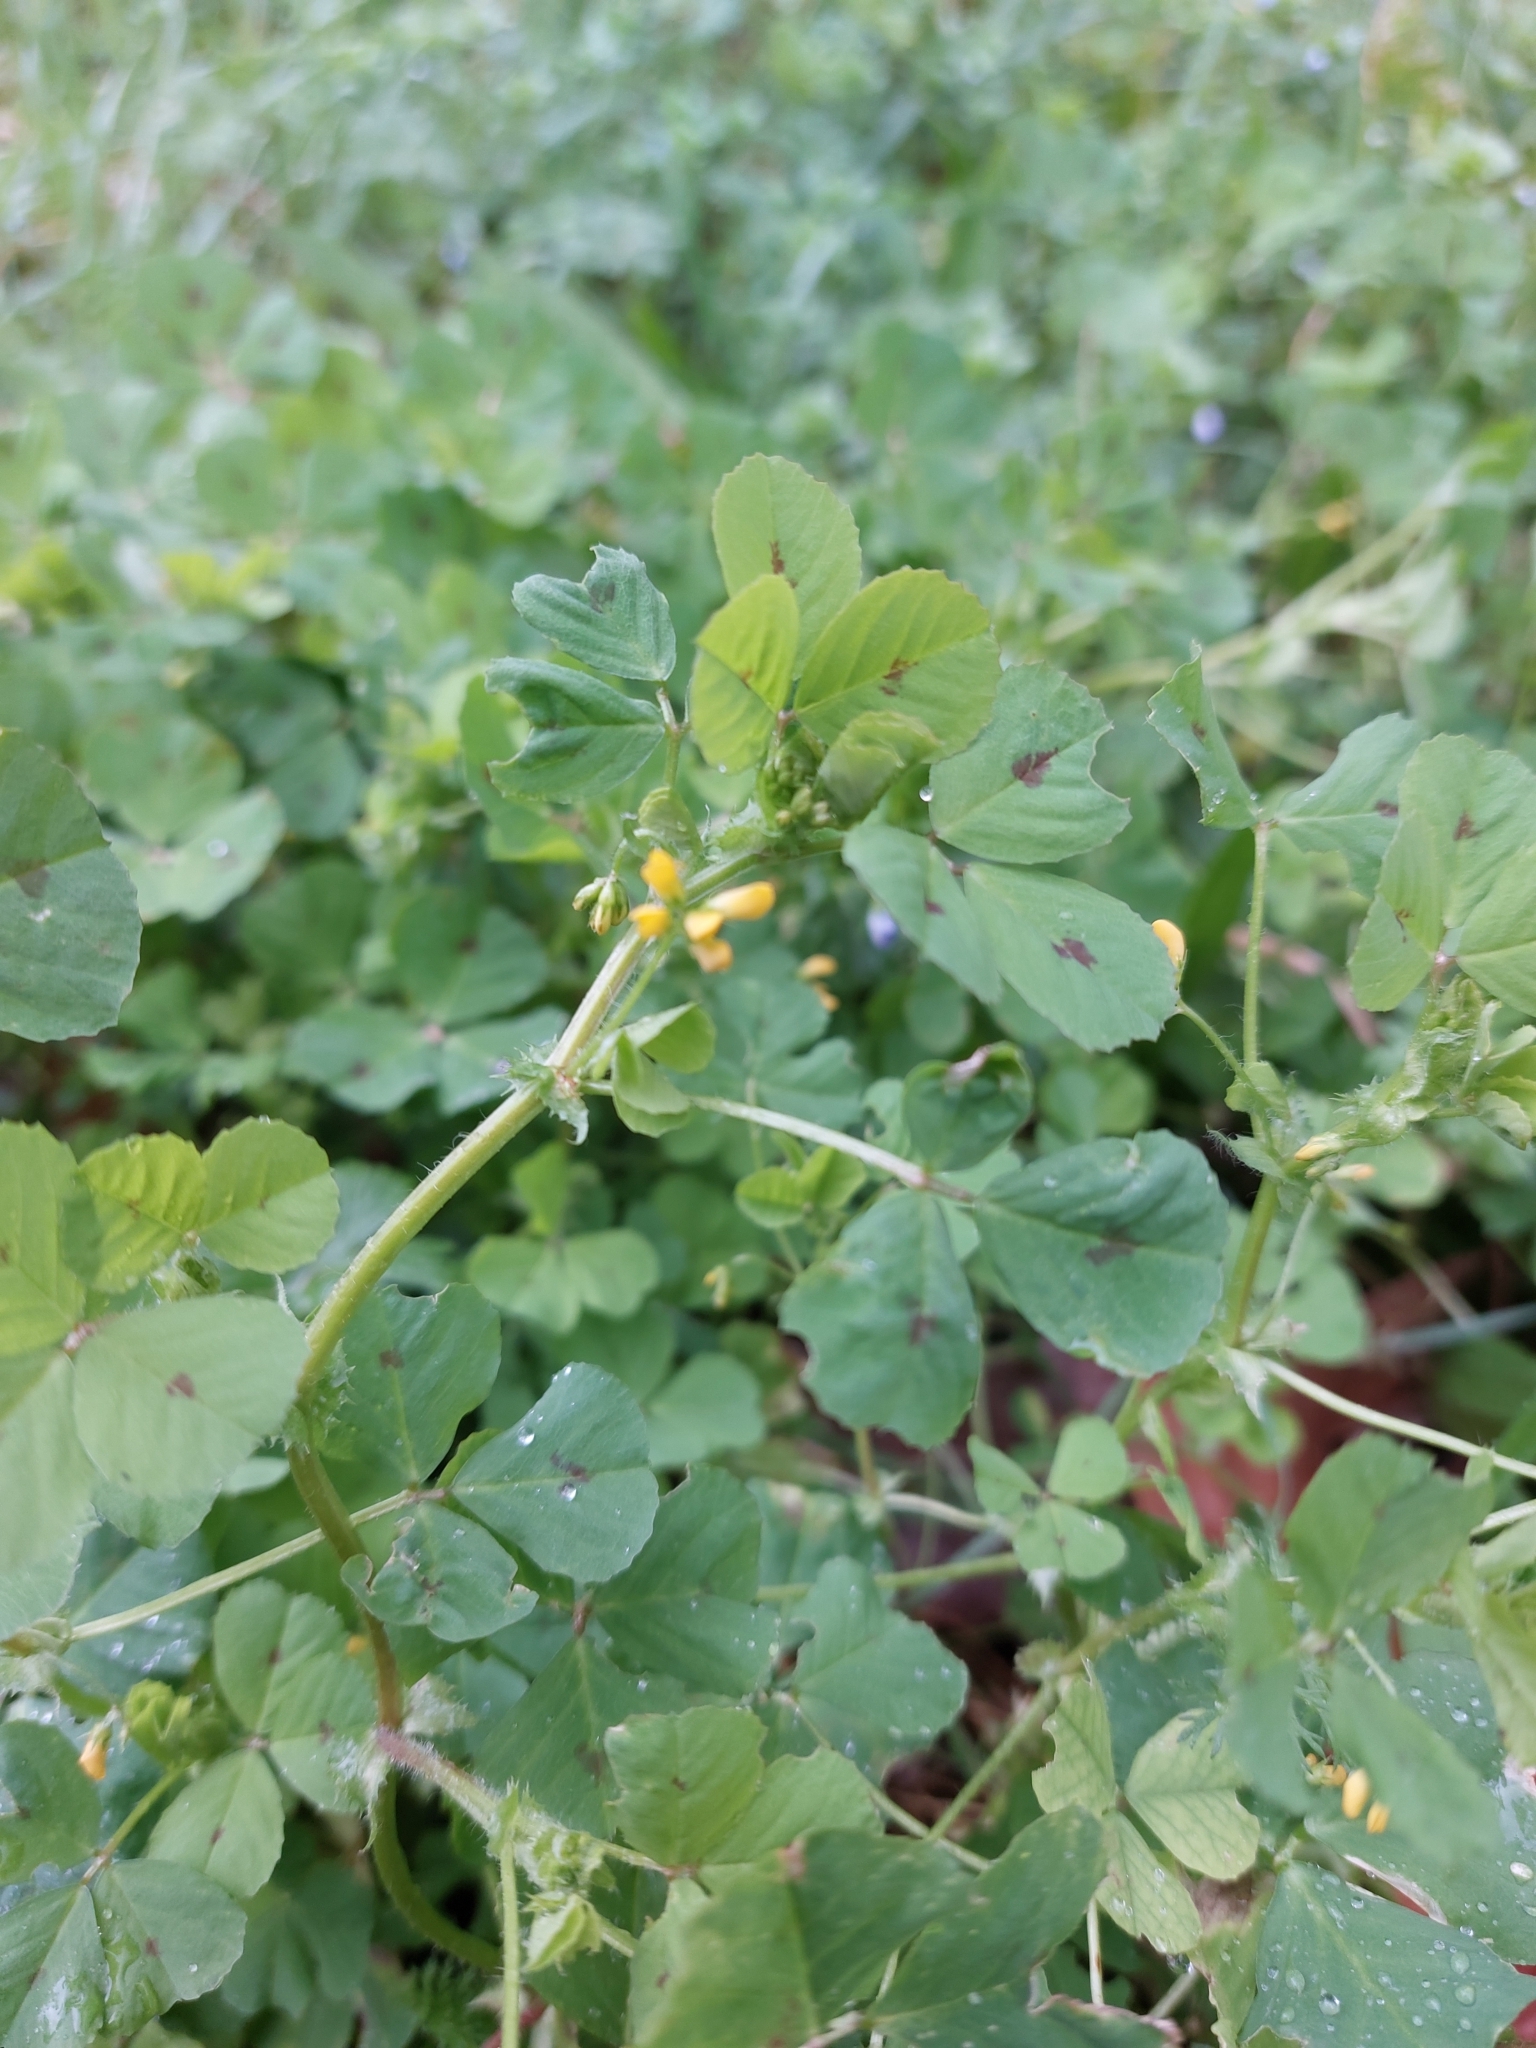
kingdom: Plantae
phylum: Tracheophyta
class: Magnoliopsida
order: Fabales
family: Fabaceae
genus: Medicago
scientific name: Medicago arabica
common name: Spotted medick
